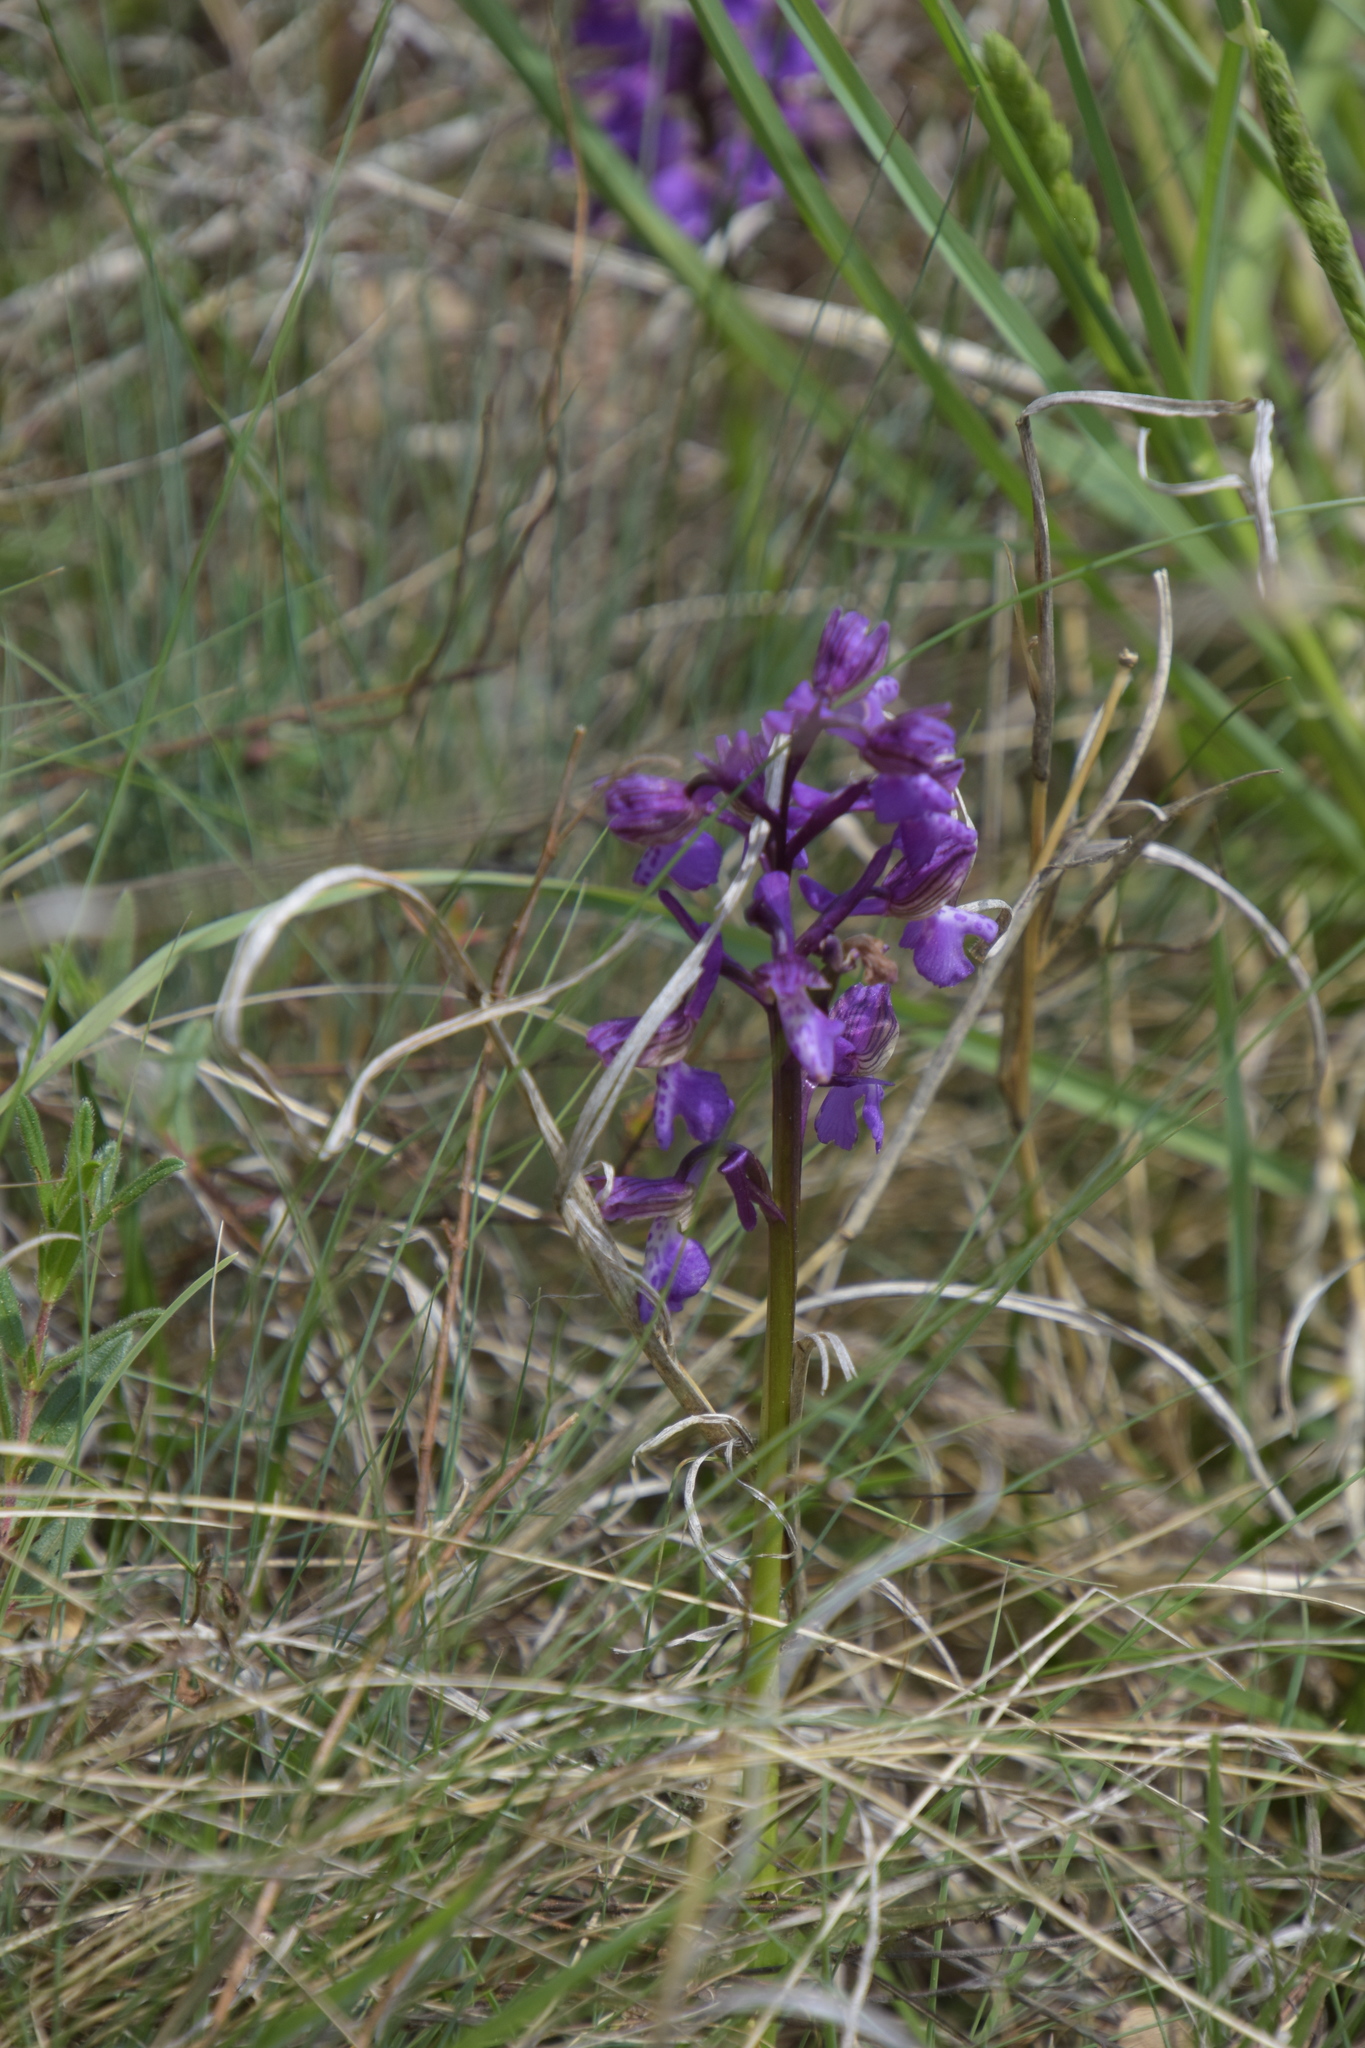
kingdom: Plantae
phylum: Tracheophyta
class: Liliopsida
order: Asparagales
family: Orchidaceae
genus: Anacamptis
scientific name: Anacamptis morio
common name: Green-winged orchid
